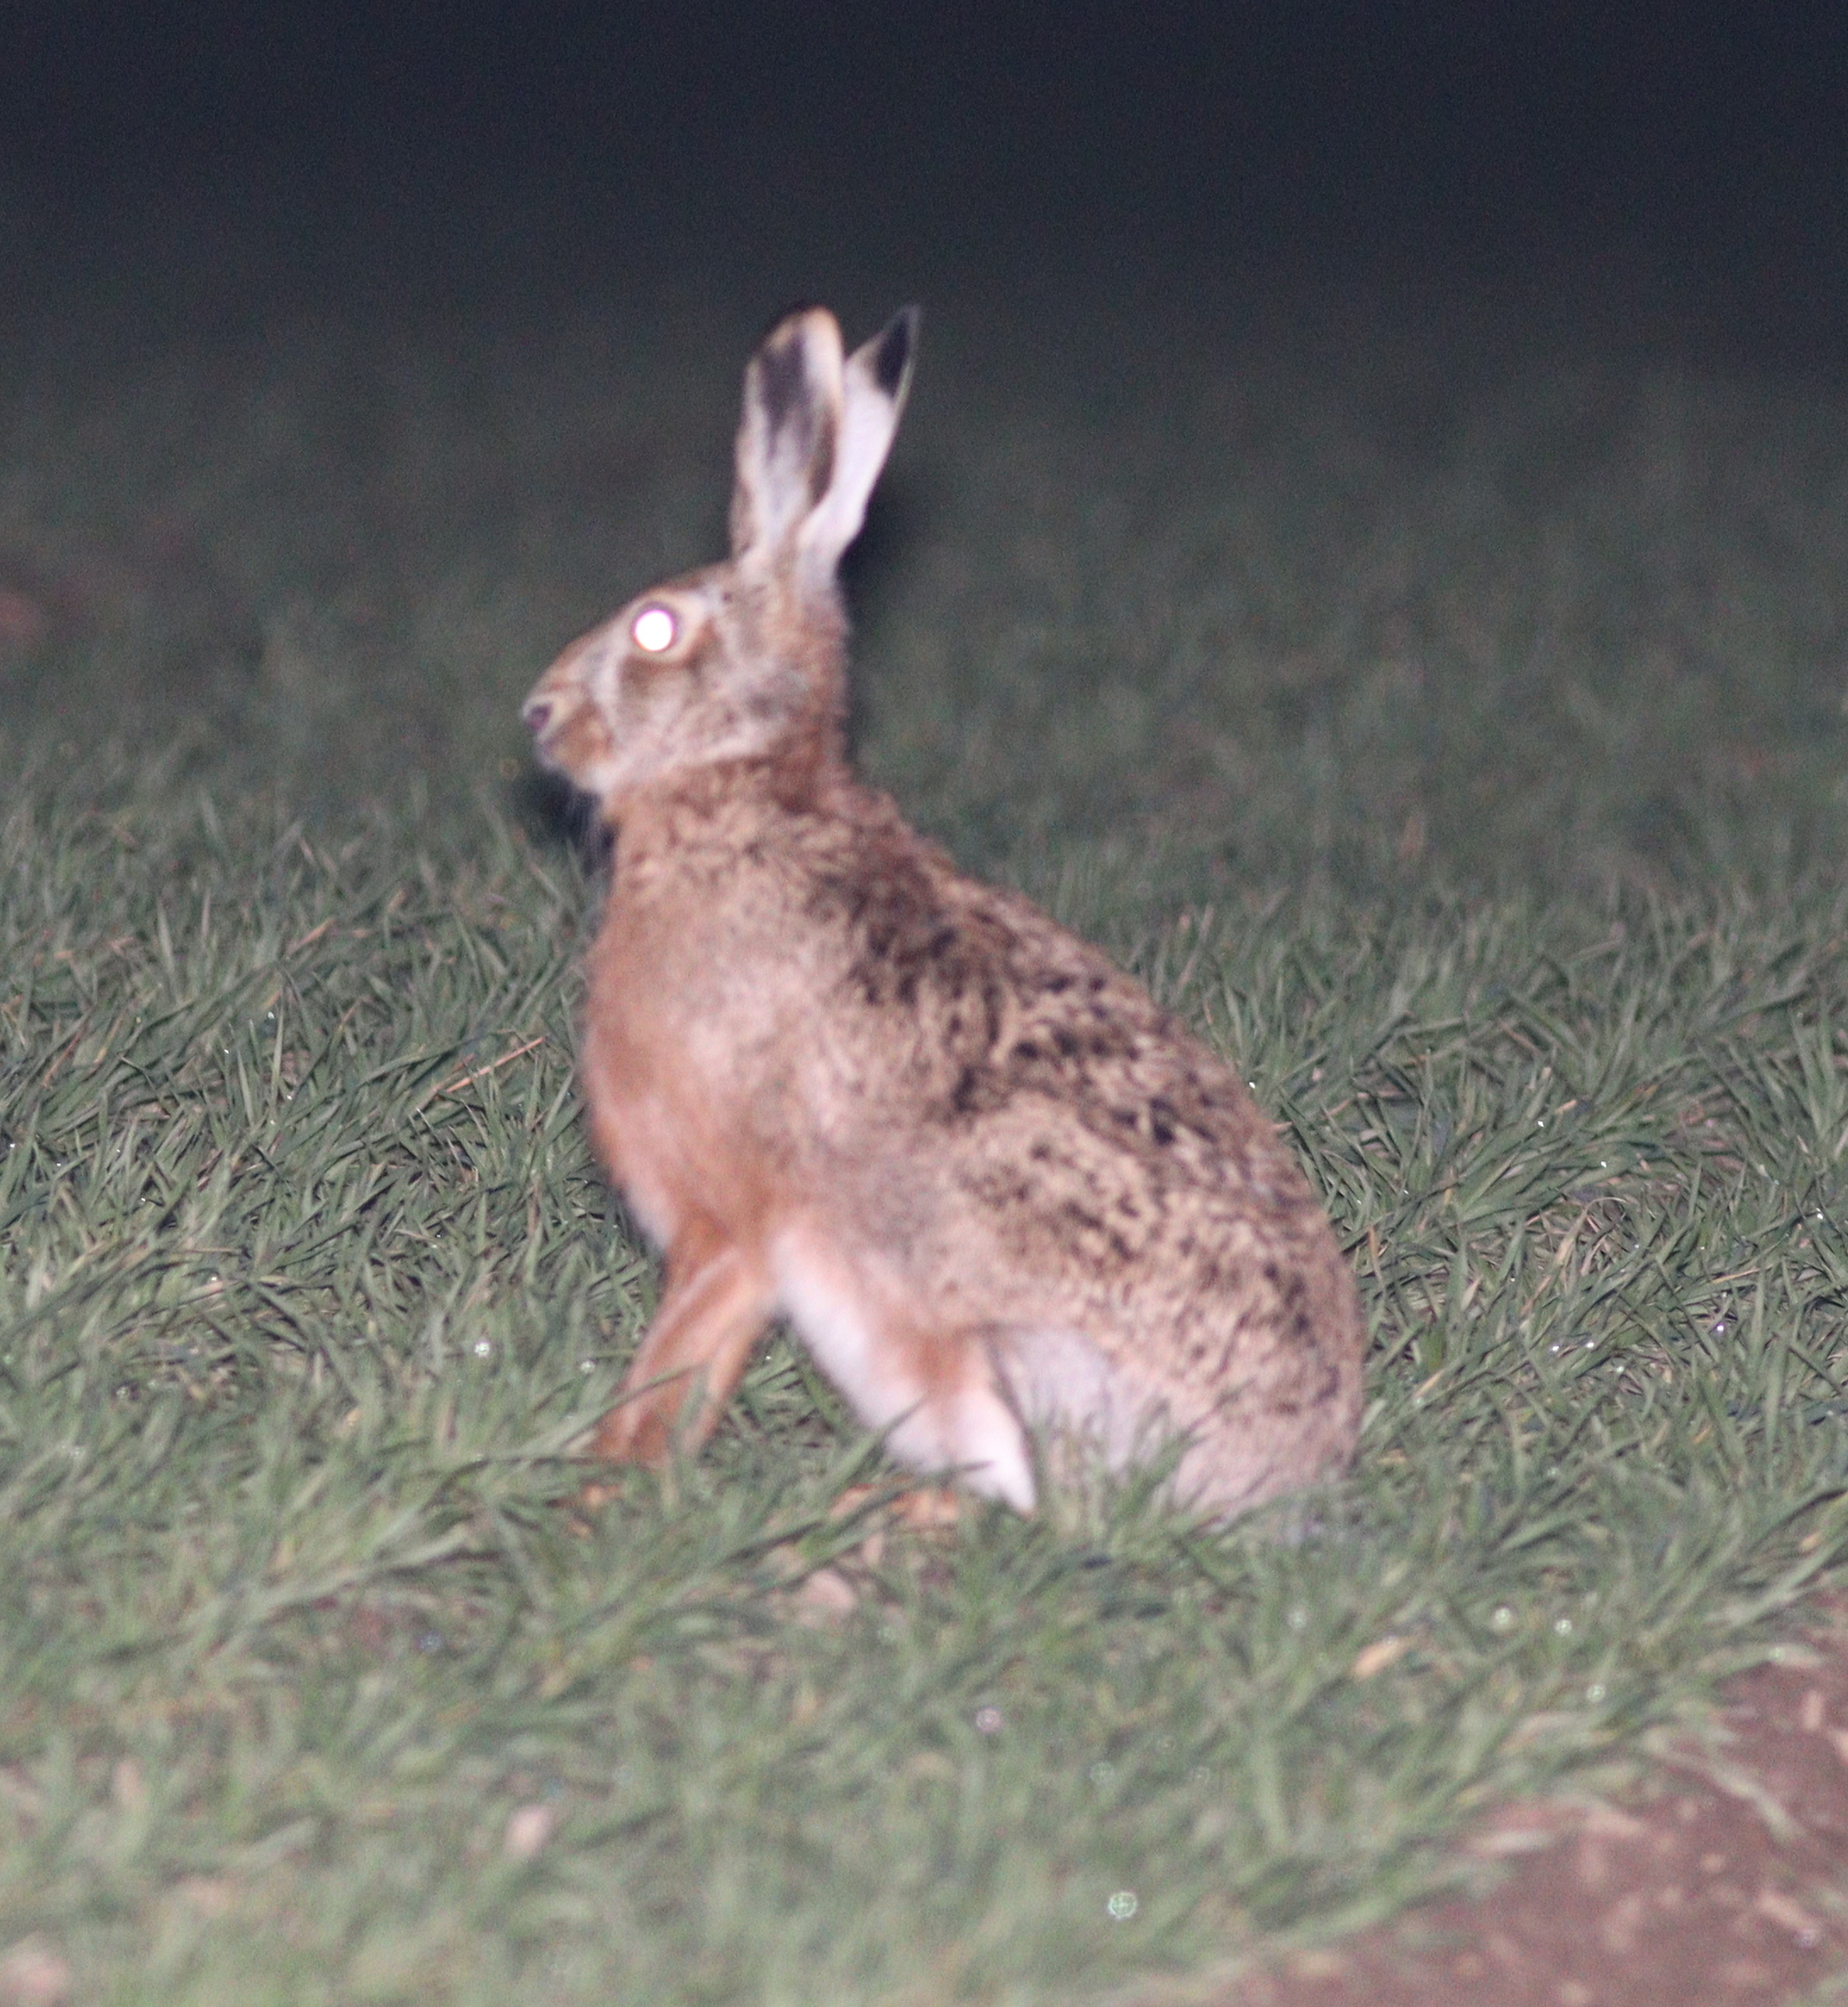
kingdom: Animalia
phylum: Chordata
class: Mammalia
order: Lagomorpha
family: Leporidae
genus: Lepus
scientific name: Lepus europaeus
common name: European hare
